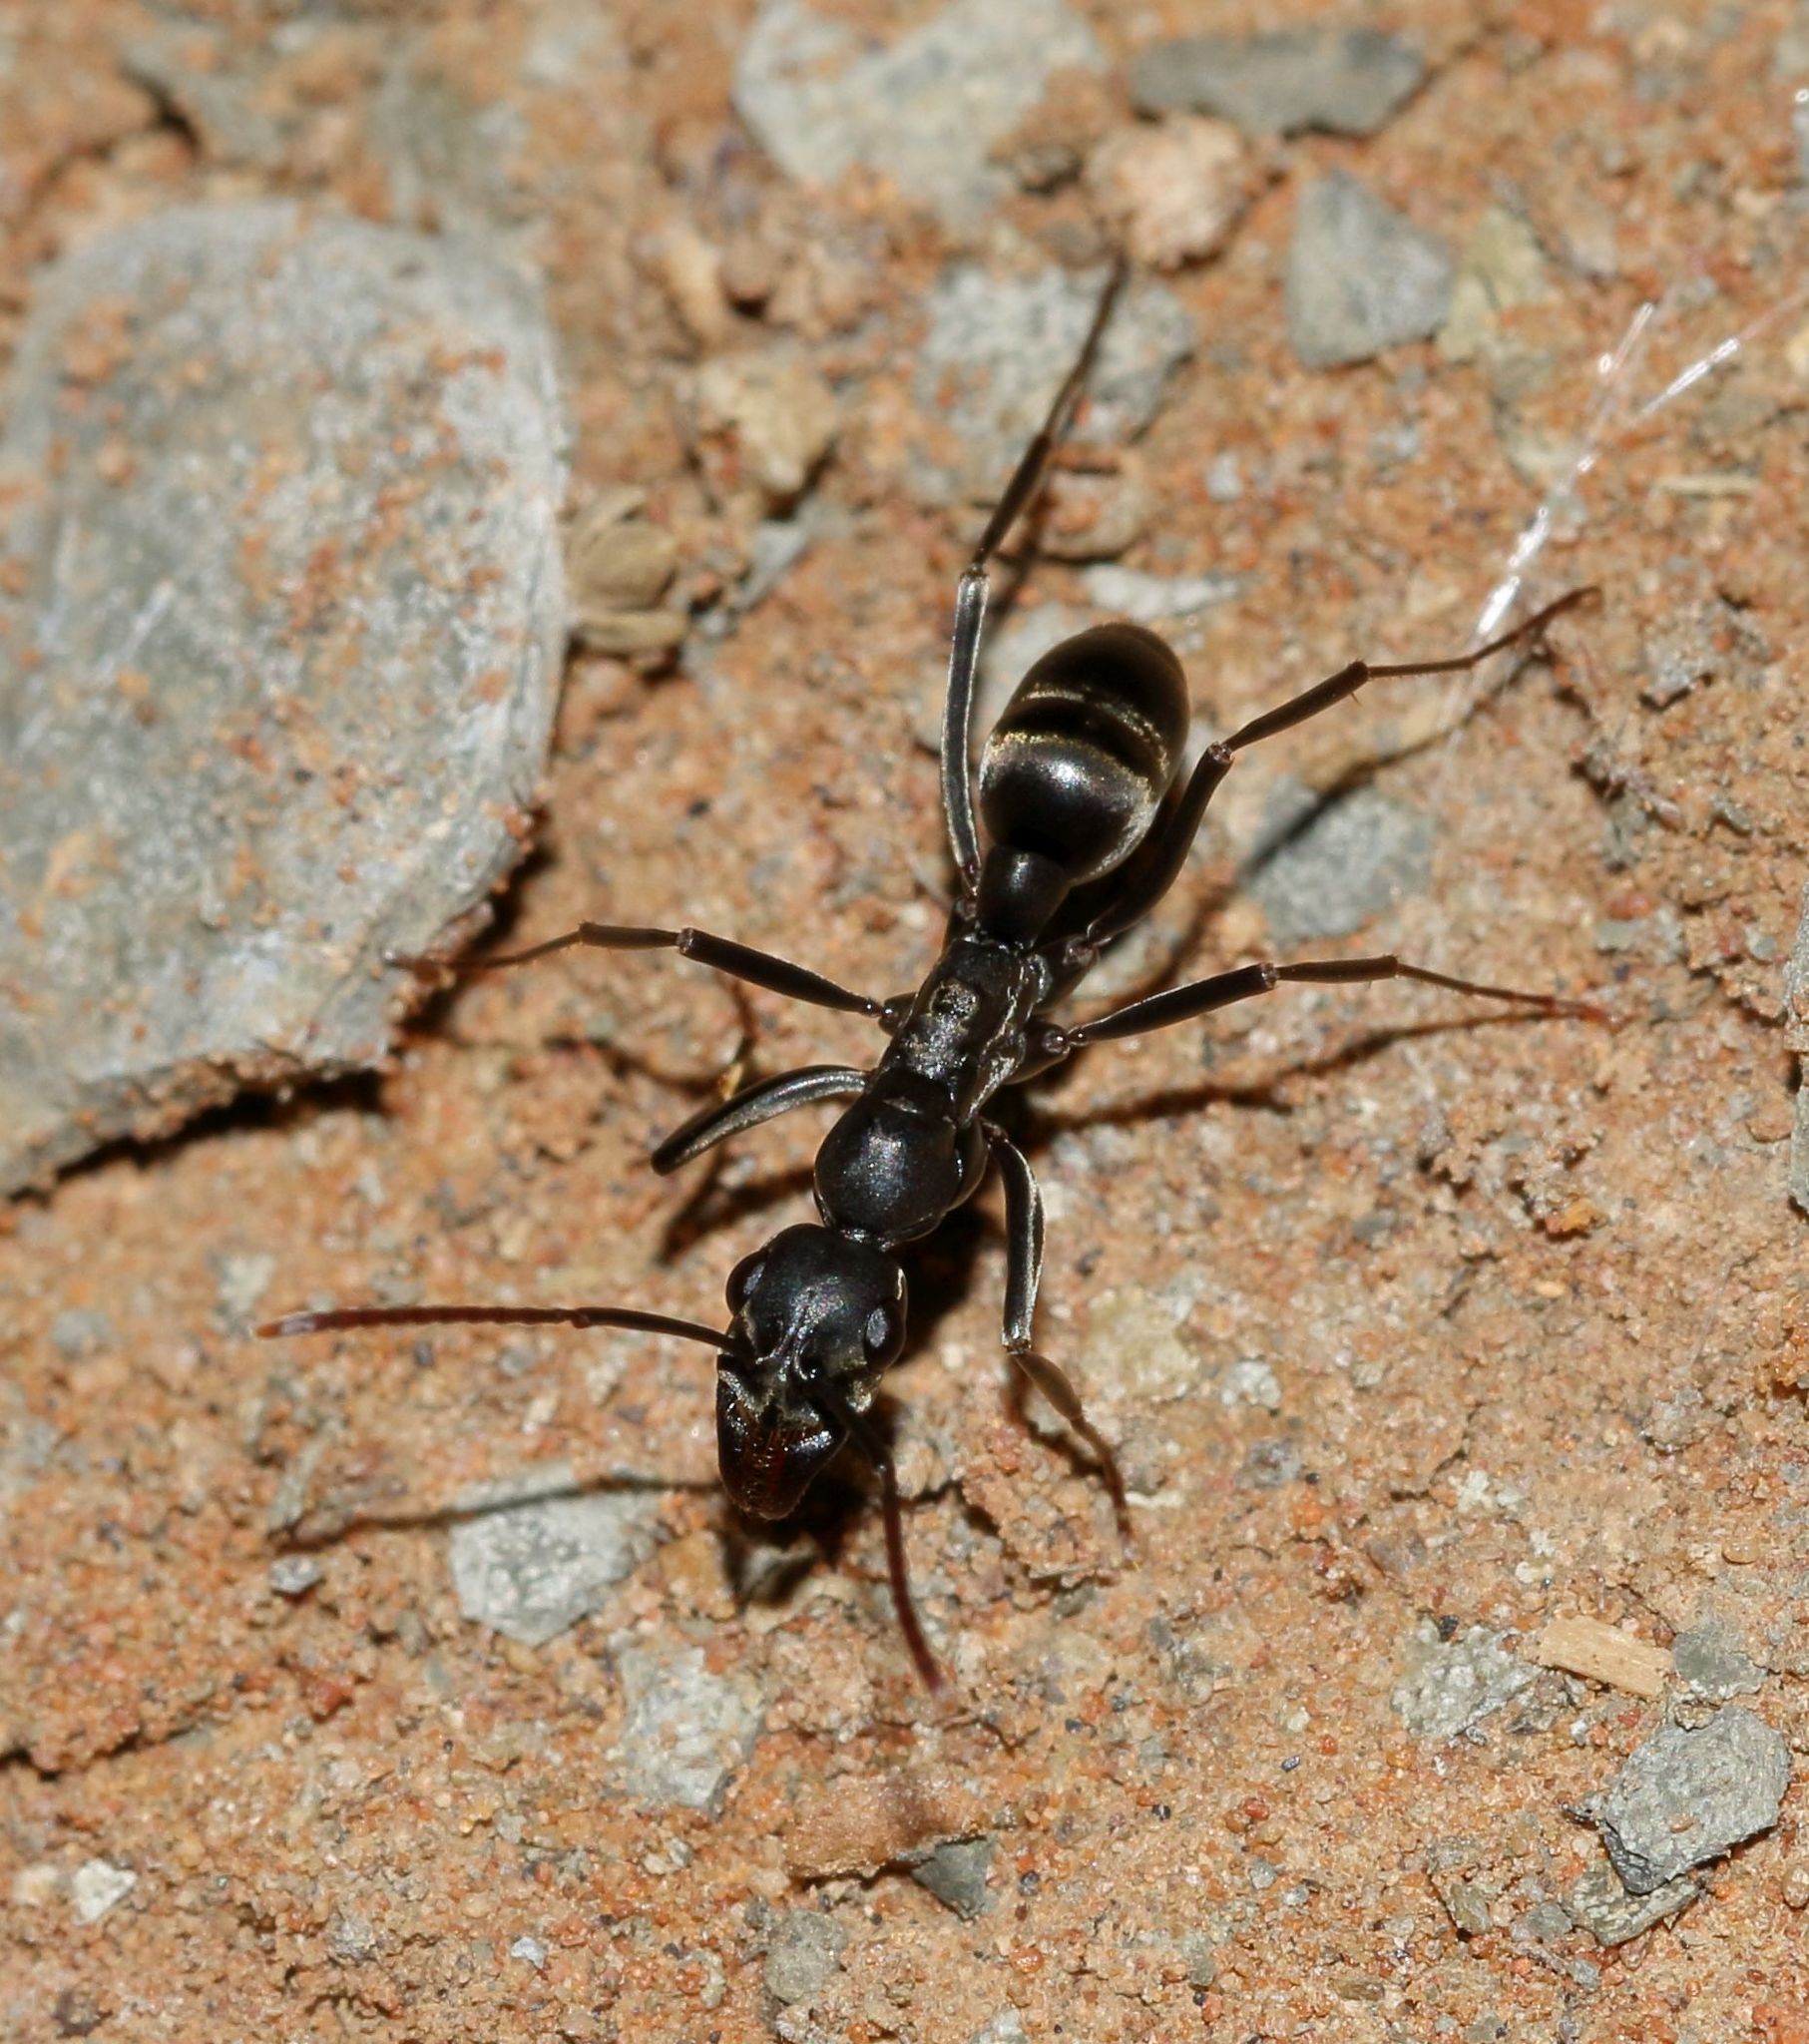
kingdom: Animalia
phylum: Arthropoda
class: Insecta
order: Hymenoptera
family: Formicidae
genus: Ophthalmopone
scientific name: Ophthalmopone
